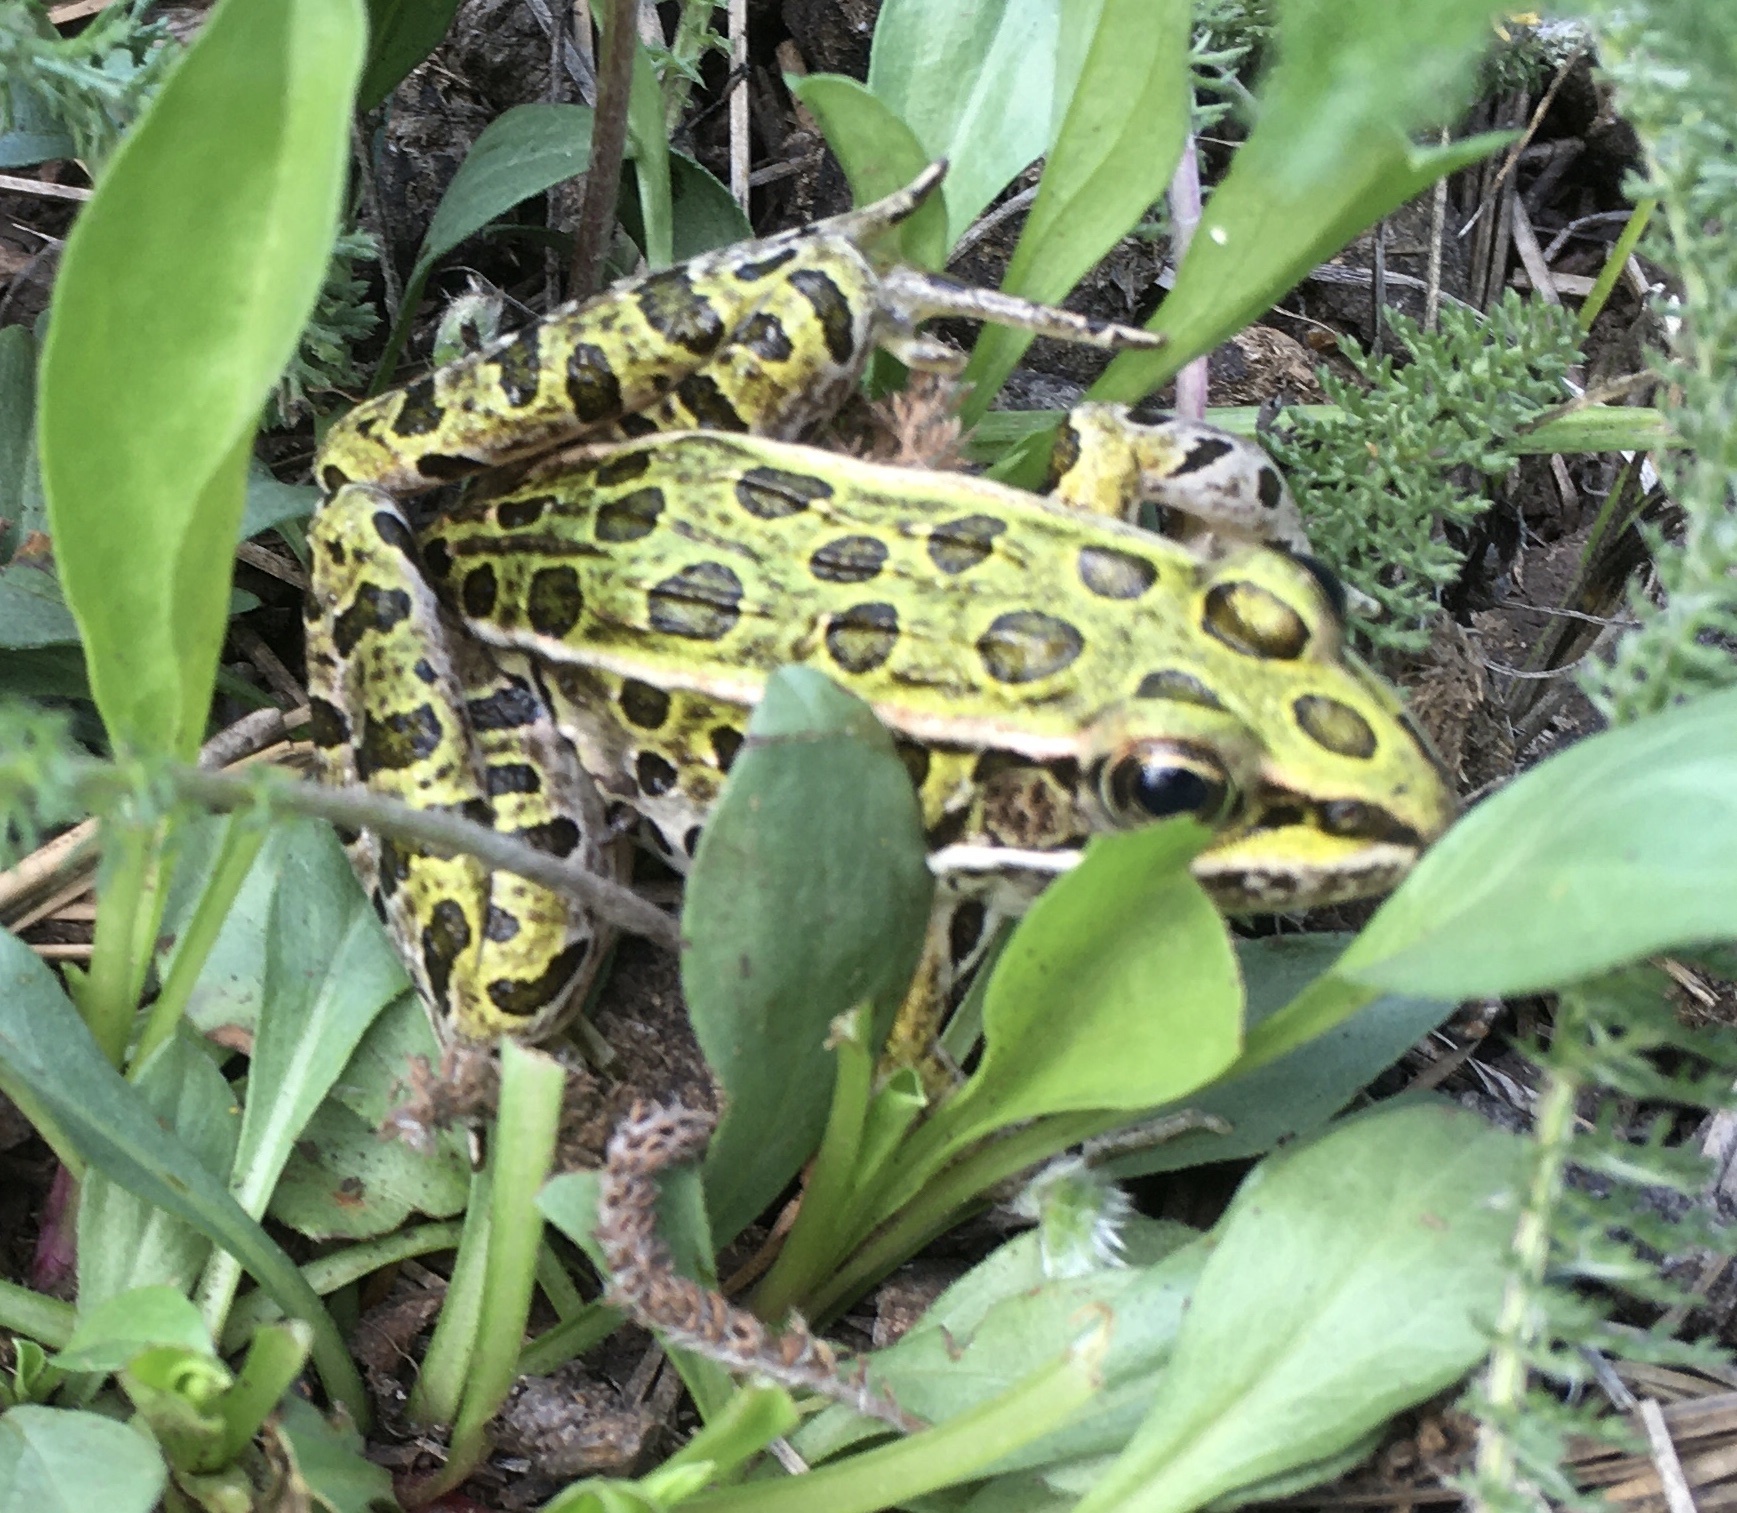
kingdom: Animalia
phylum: Chordata
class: Amphibia
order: Anura
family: Ranidae
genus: Lithobates
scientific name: Lithobates pipiens
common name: Northern leopard frog
